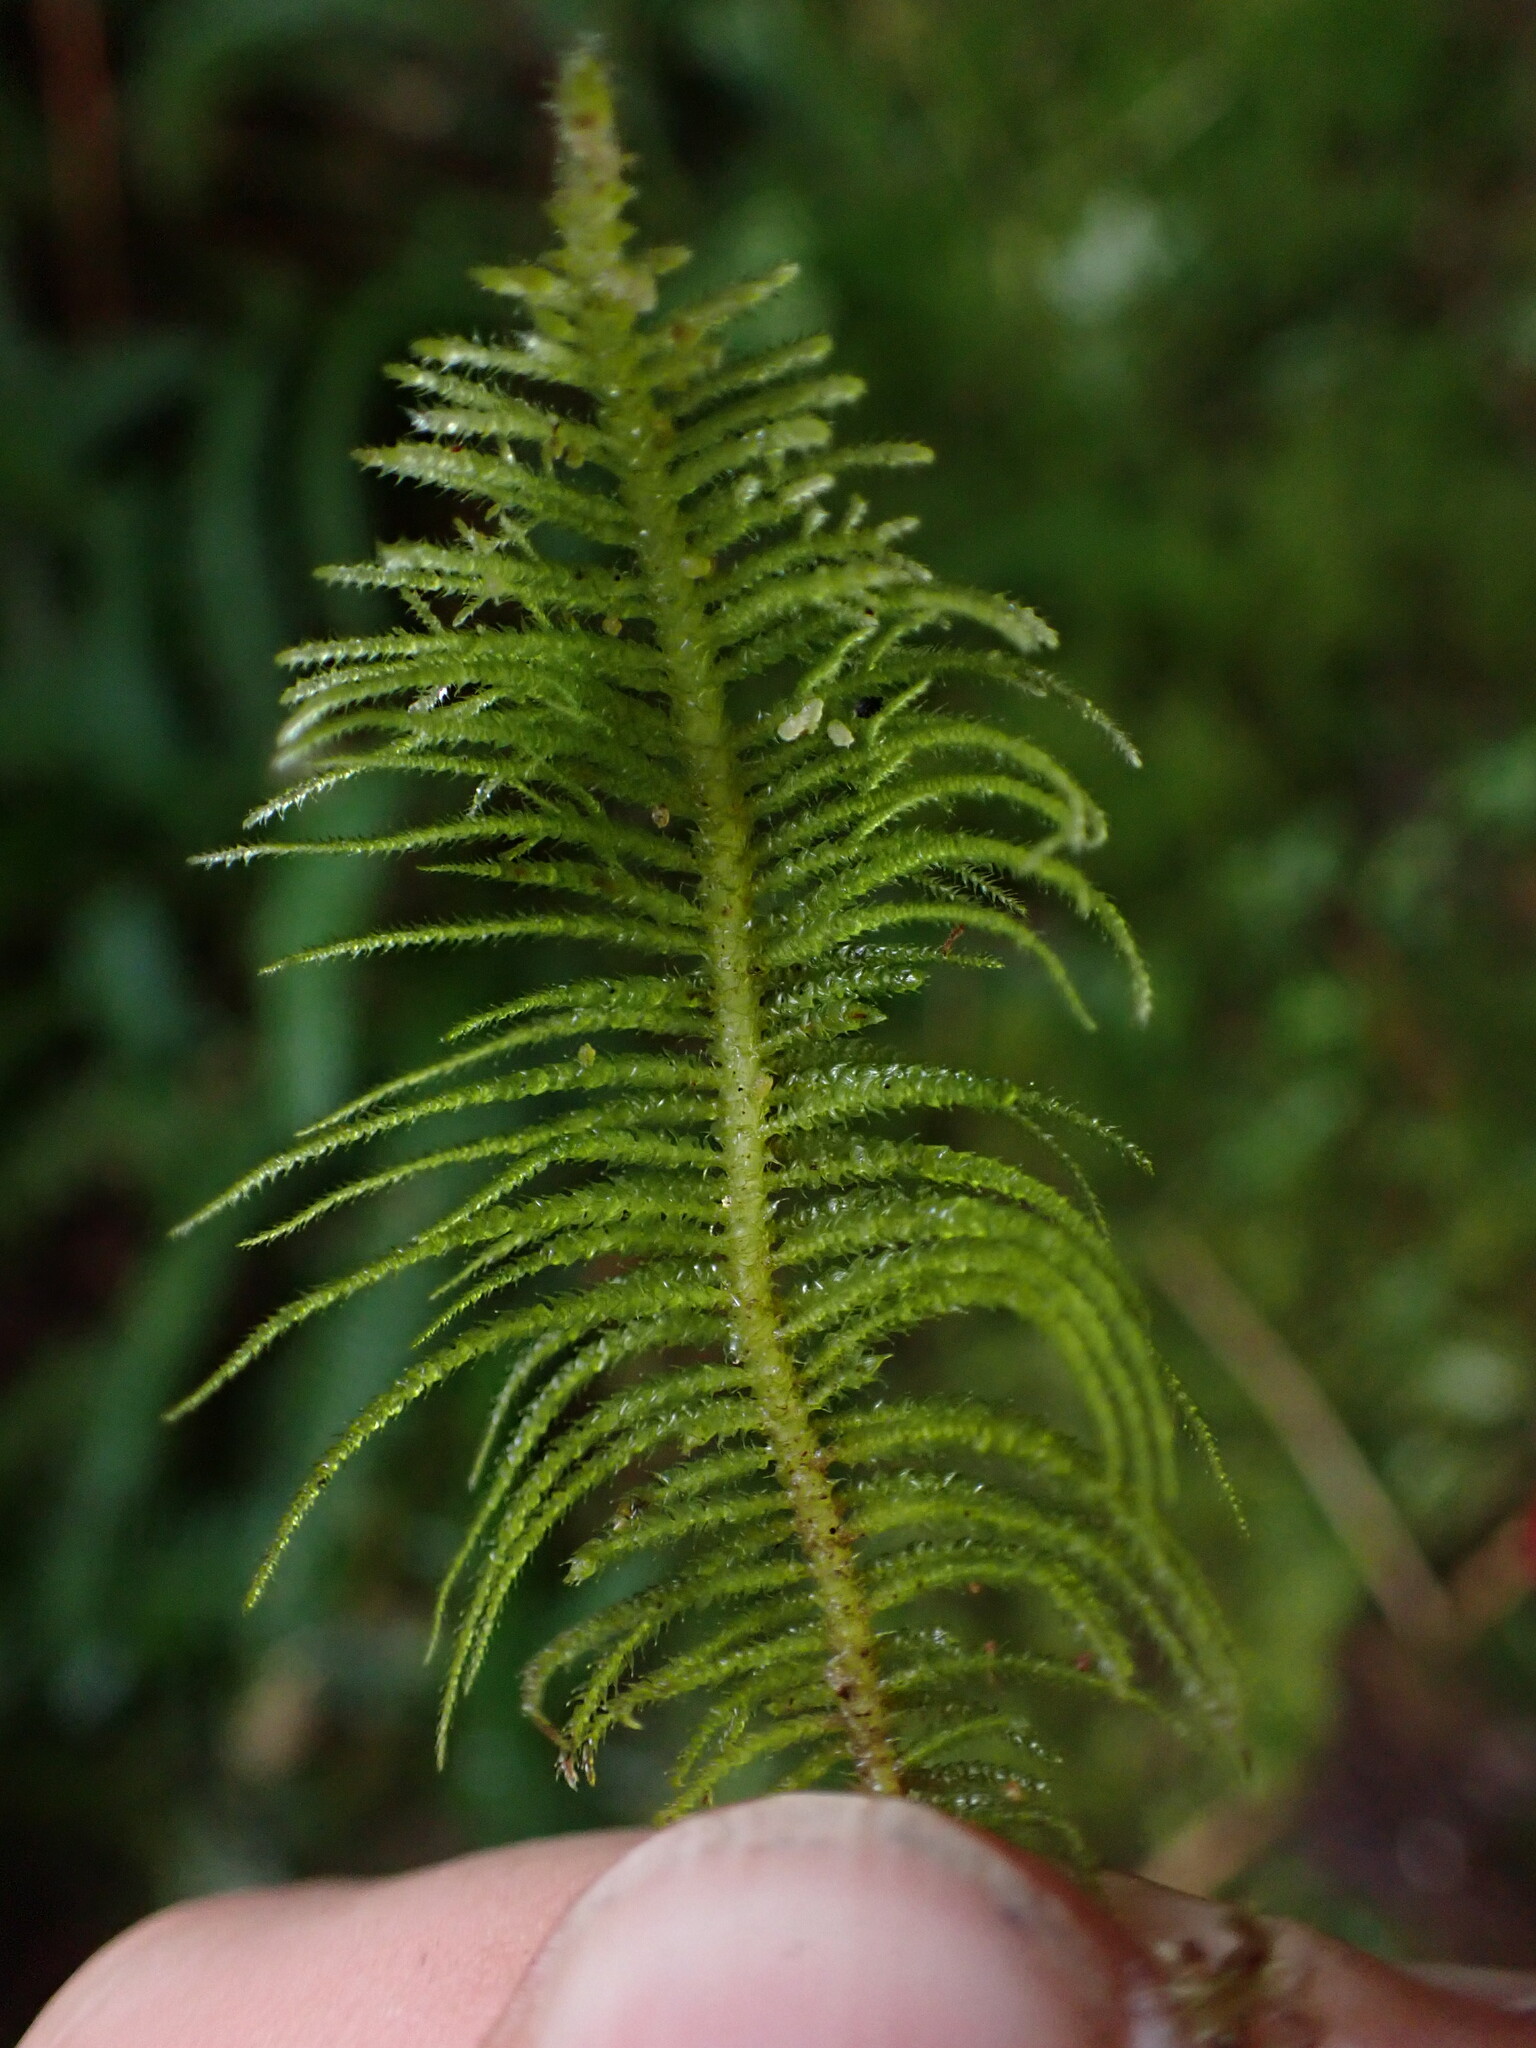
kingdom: Plantae
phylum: Bryophyta
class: Bryopsida
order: Hypnales
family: Brachytheciaceae
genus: Kindbergia
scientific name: Kindbergia oregana
